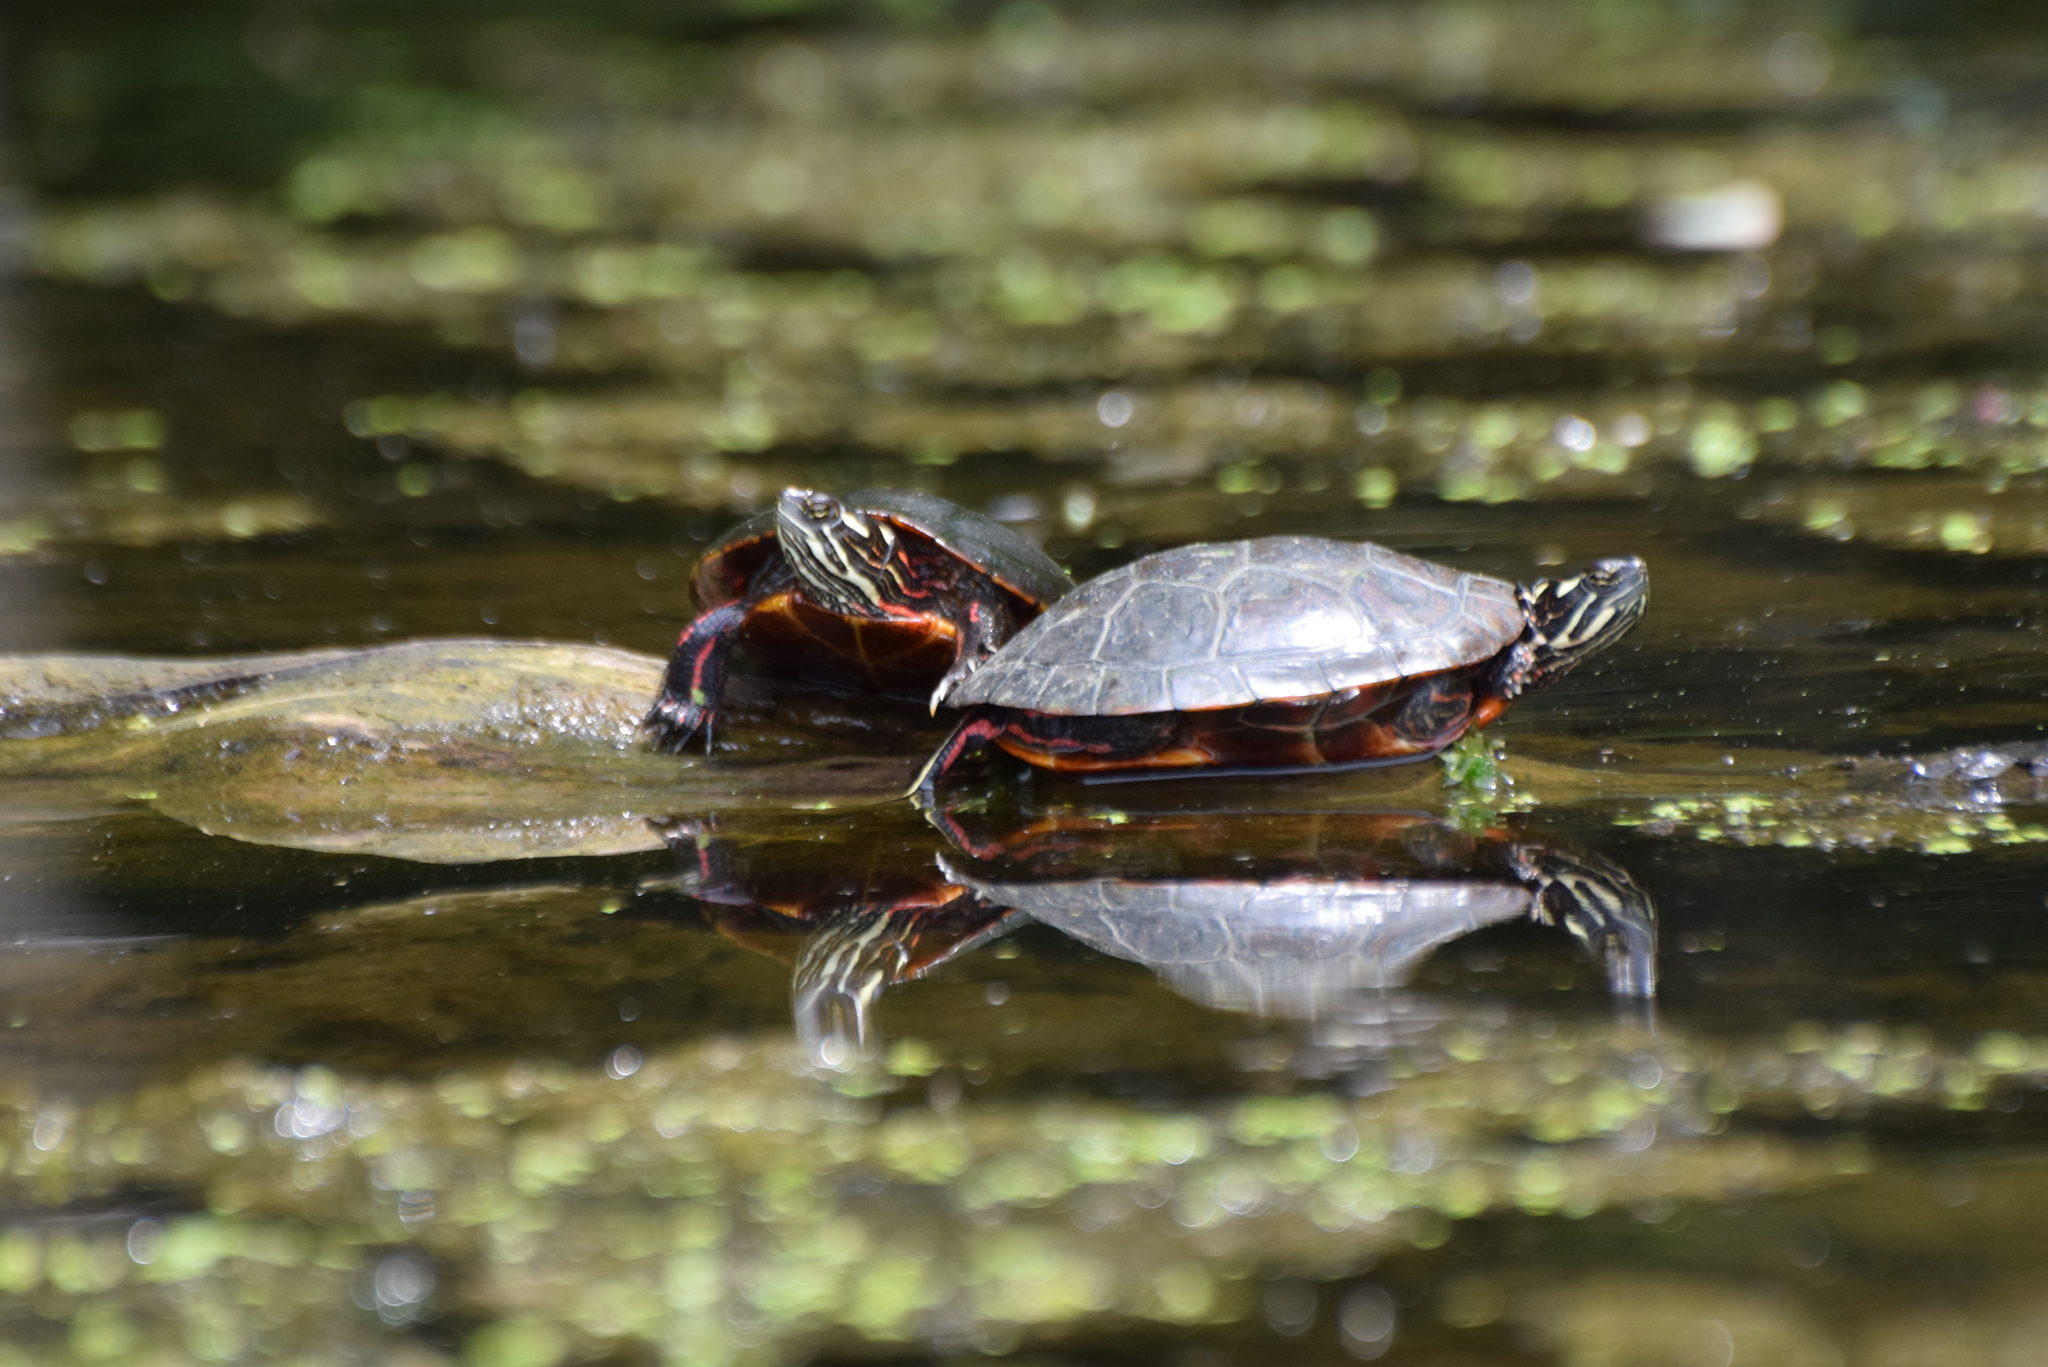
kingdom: Animalia
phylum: Chordata
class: Testudines
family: Emydidae
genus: Chrysemys
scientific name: Chrysemys picta
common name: Painted turtle
